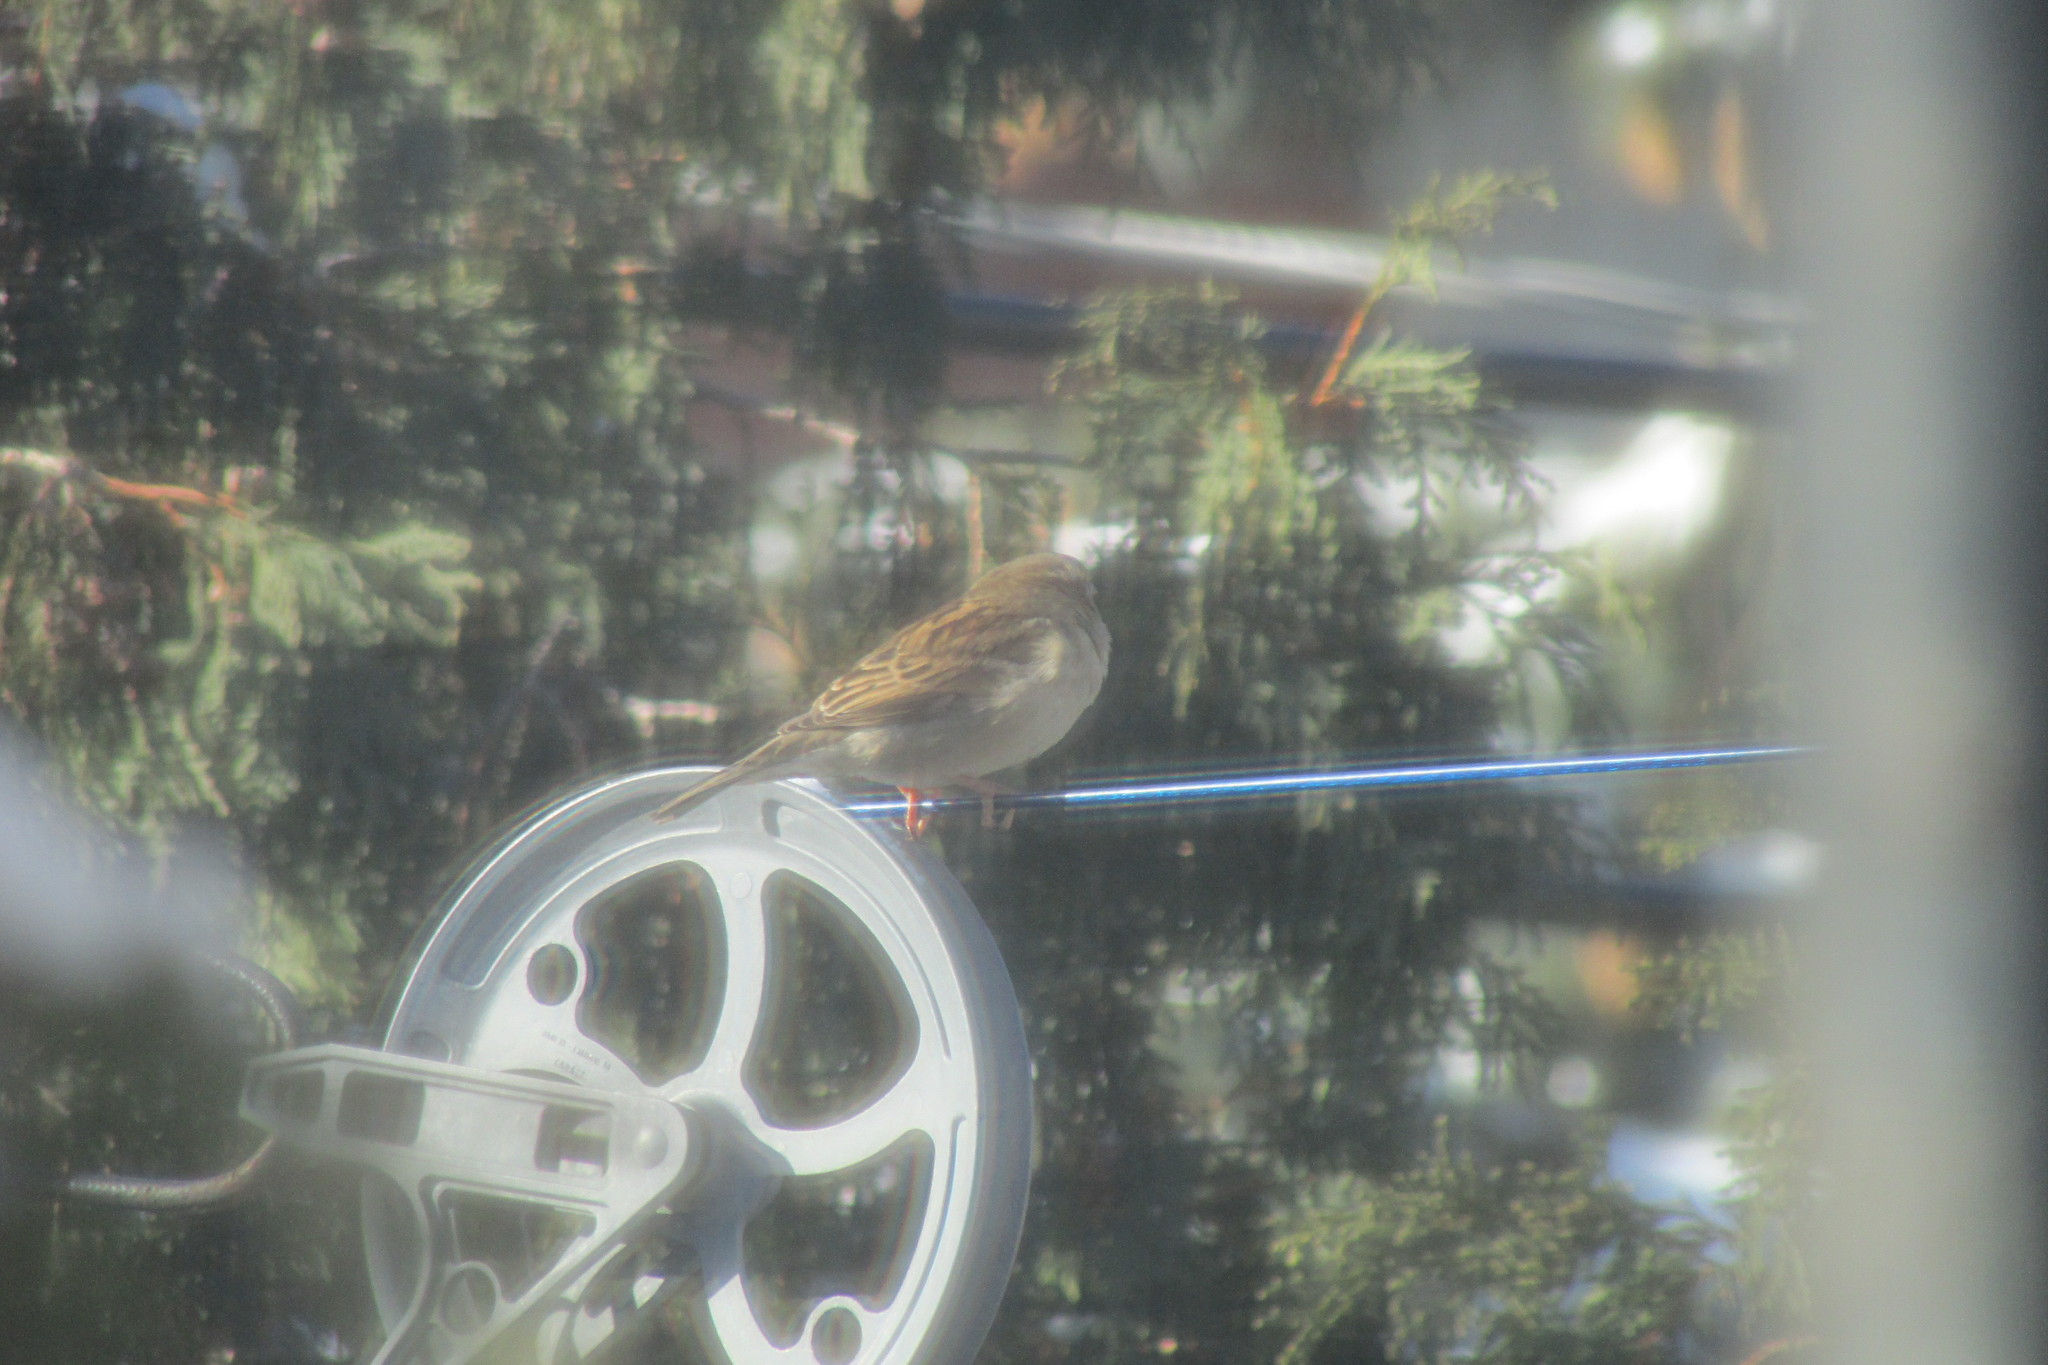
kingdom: Animalia
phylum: Chordata
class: Aves
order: Passeriformes
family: Passeridae
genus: Passer
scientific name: Passer domesticus
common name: House sparrow
